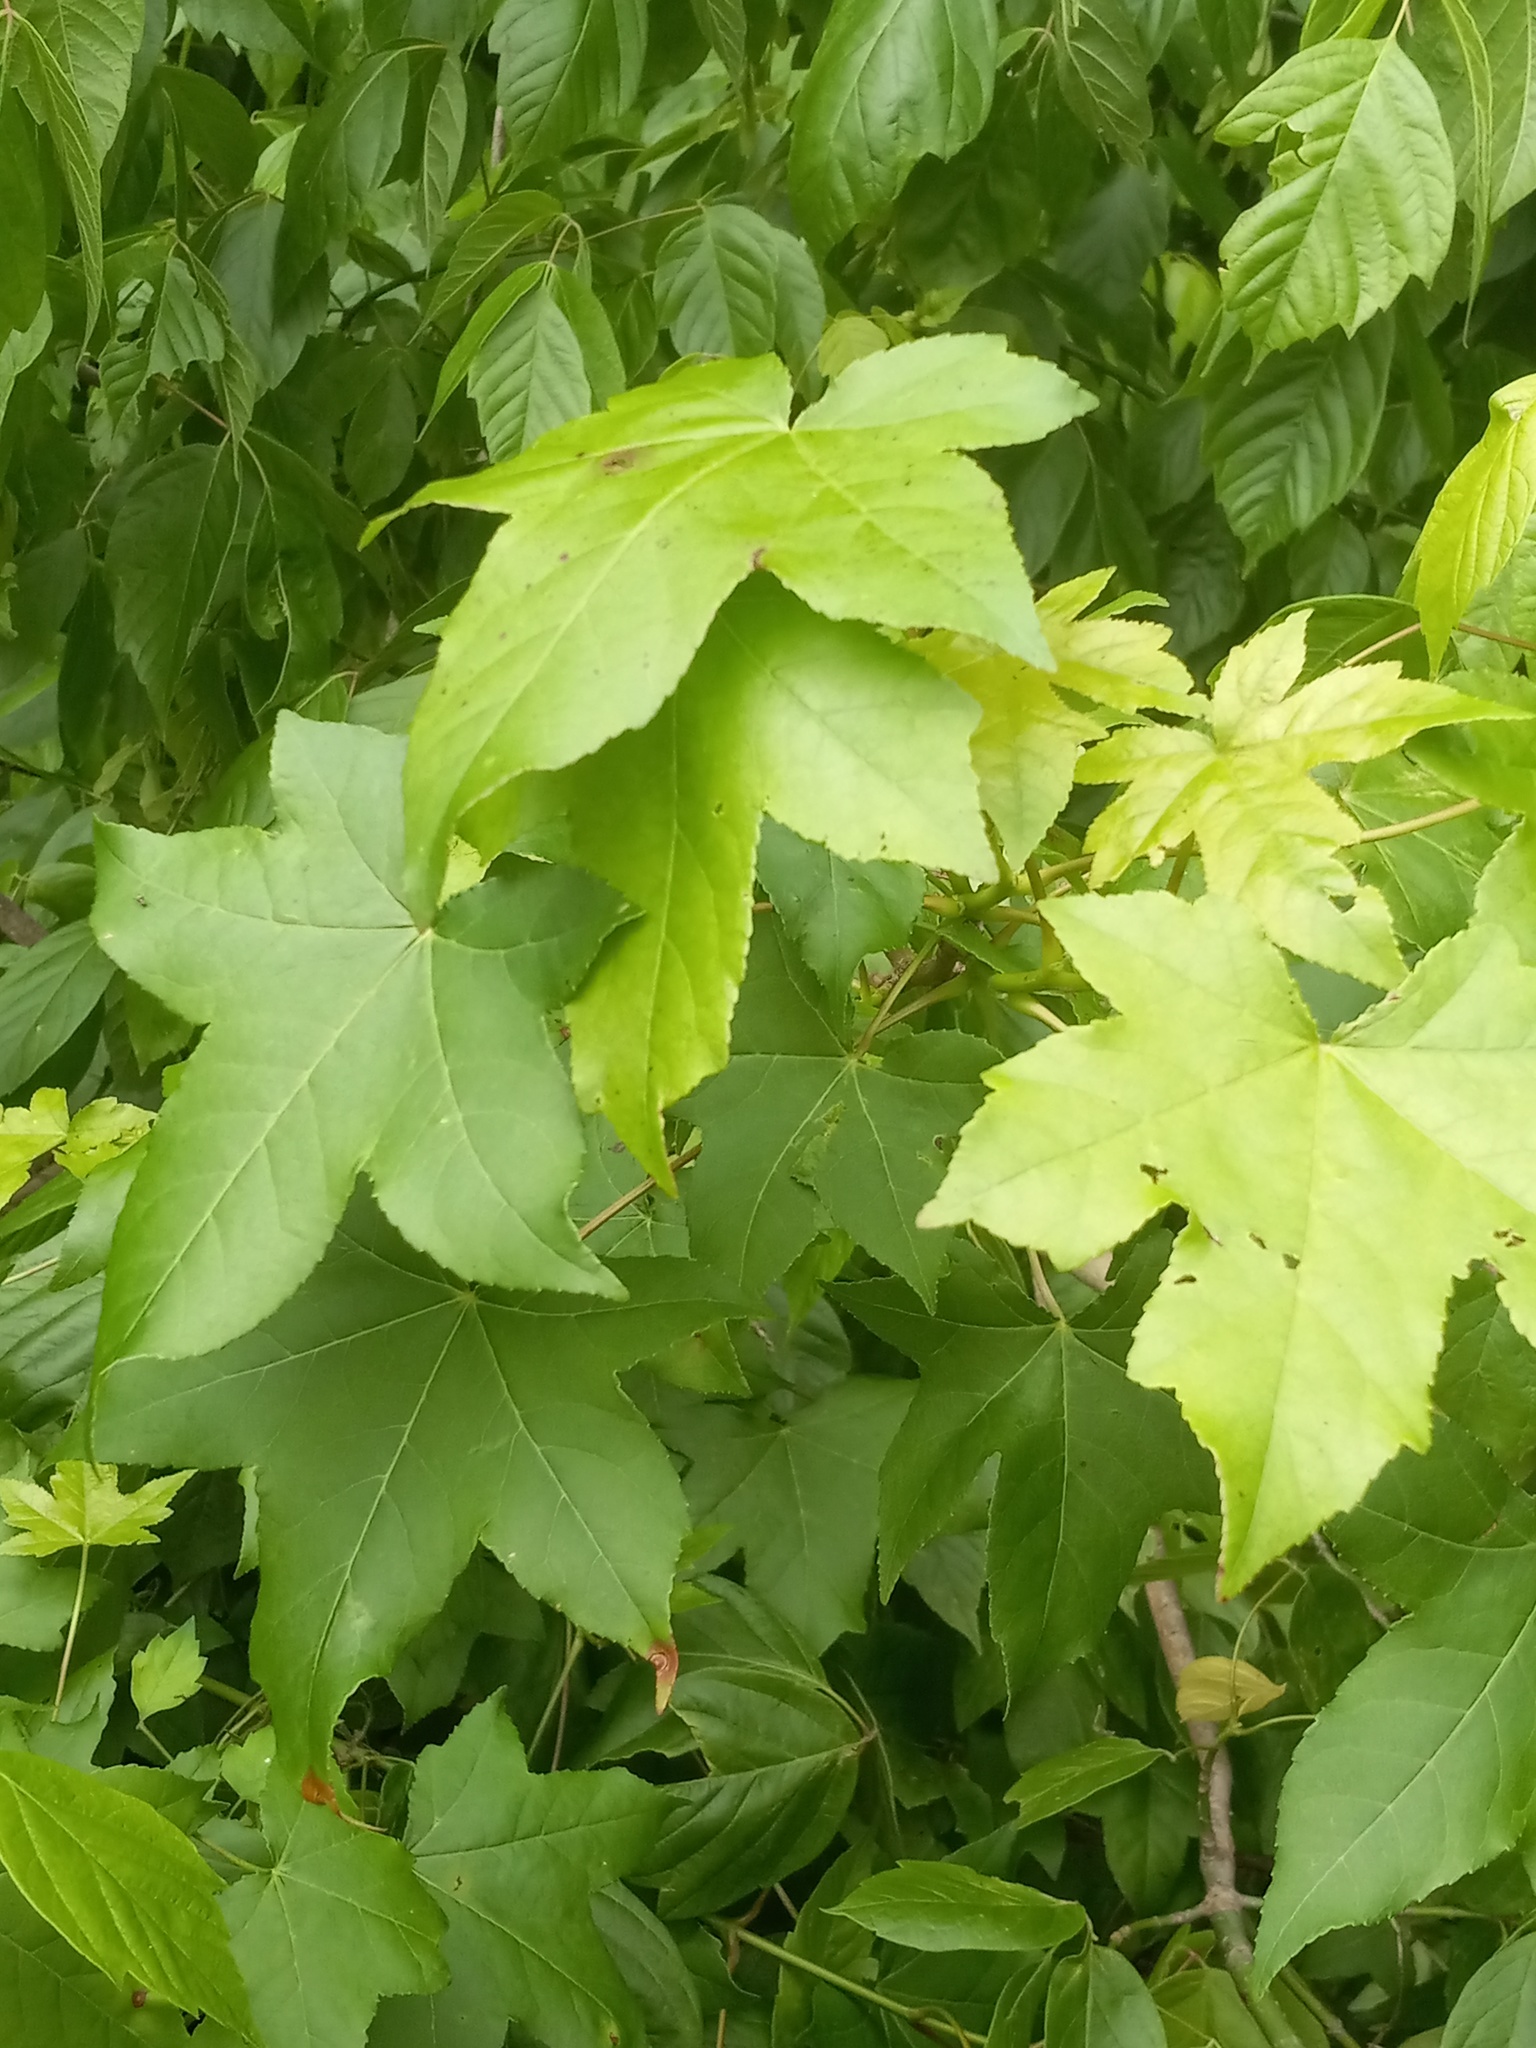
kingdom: Plantae
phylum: Tracheophyta
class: Magnoliopsida
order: Saxifragales
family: Altingiaceae
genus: Liquidambar
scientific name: Liquidambar styraciflua
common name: Sweet gum
